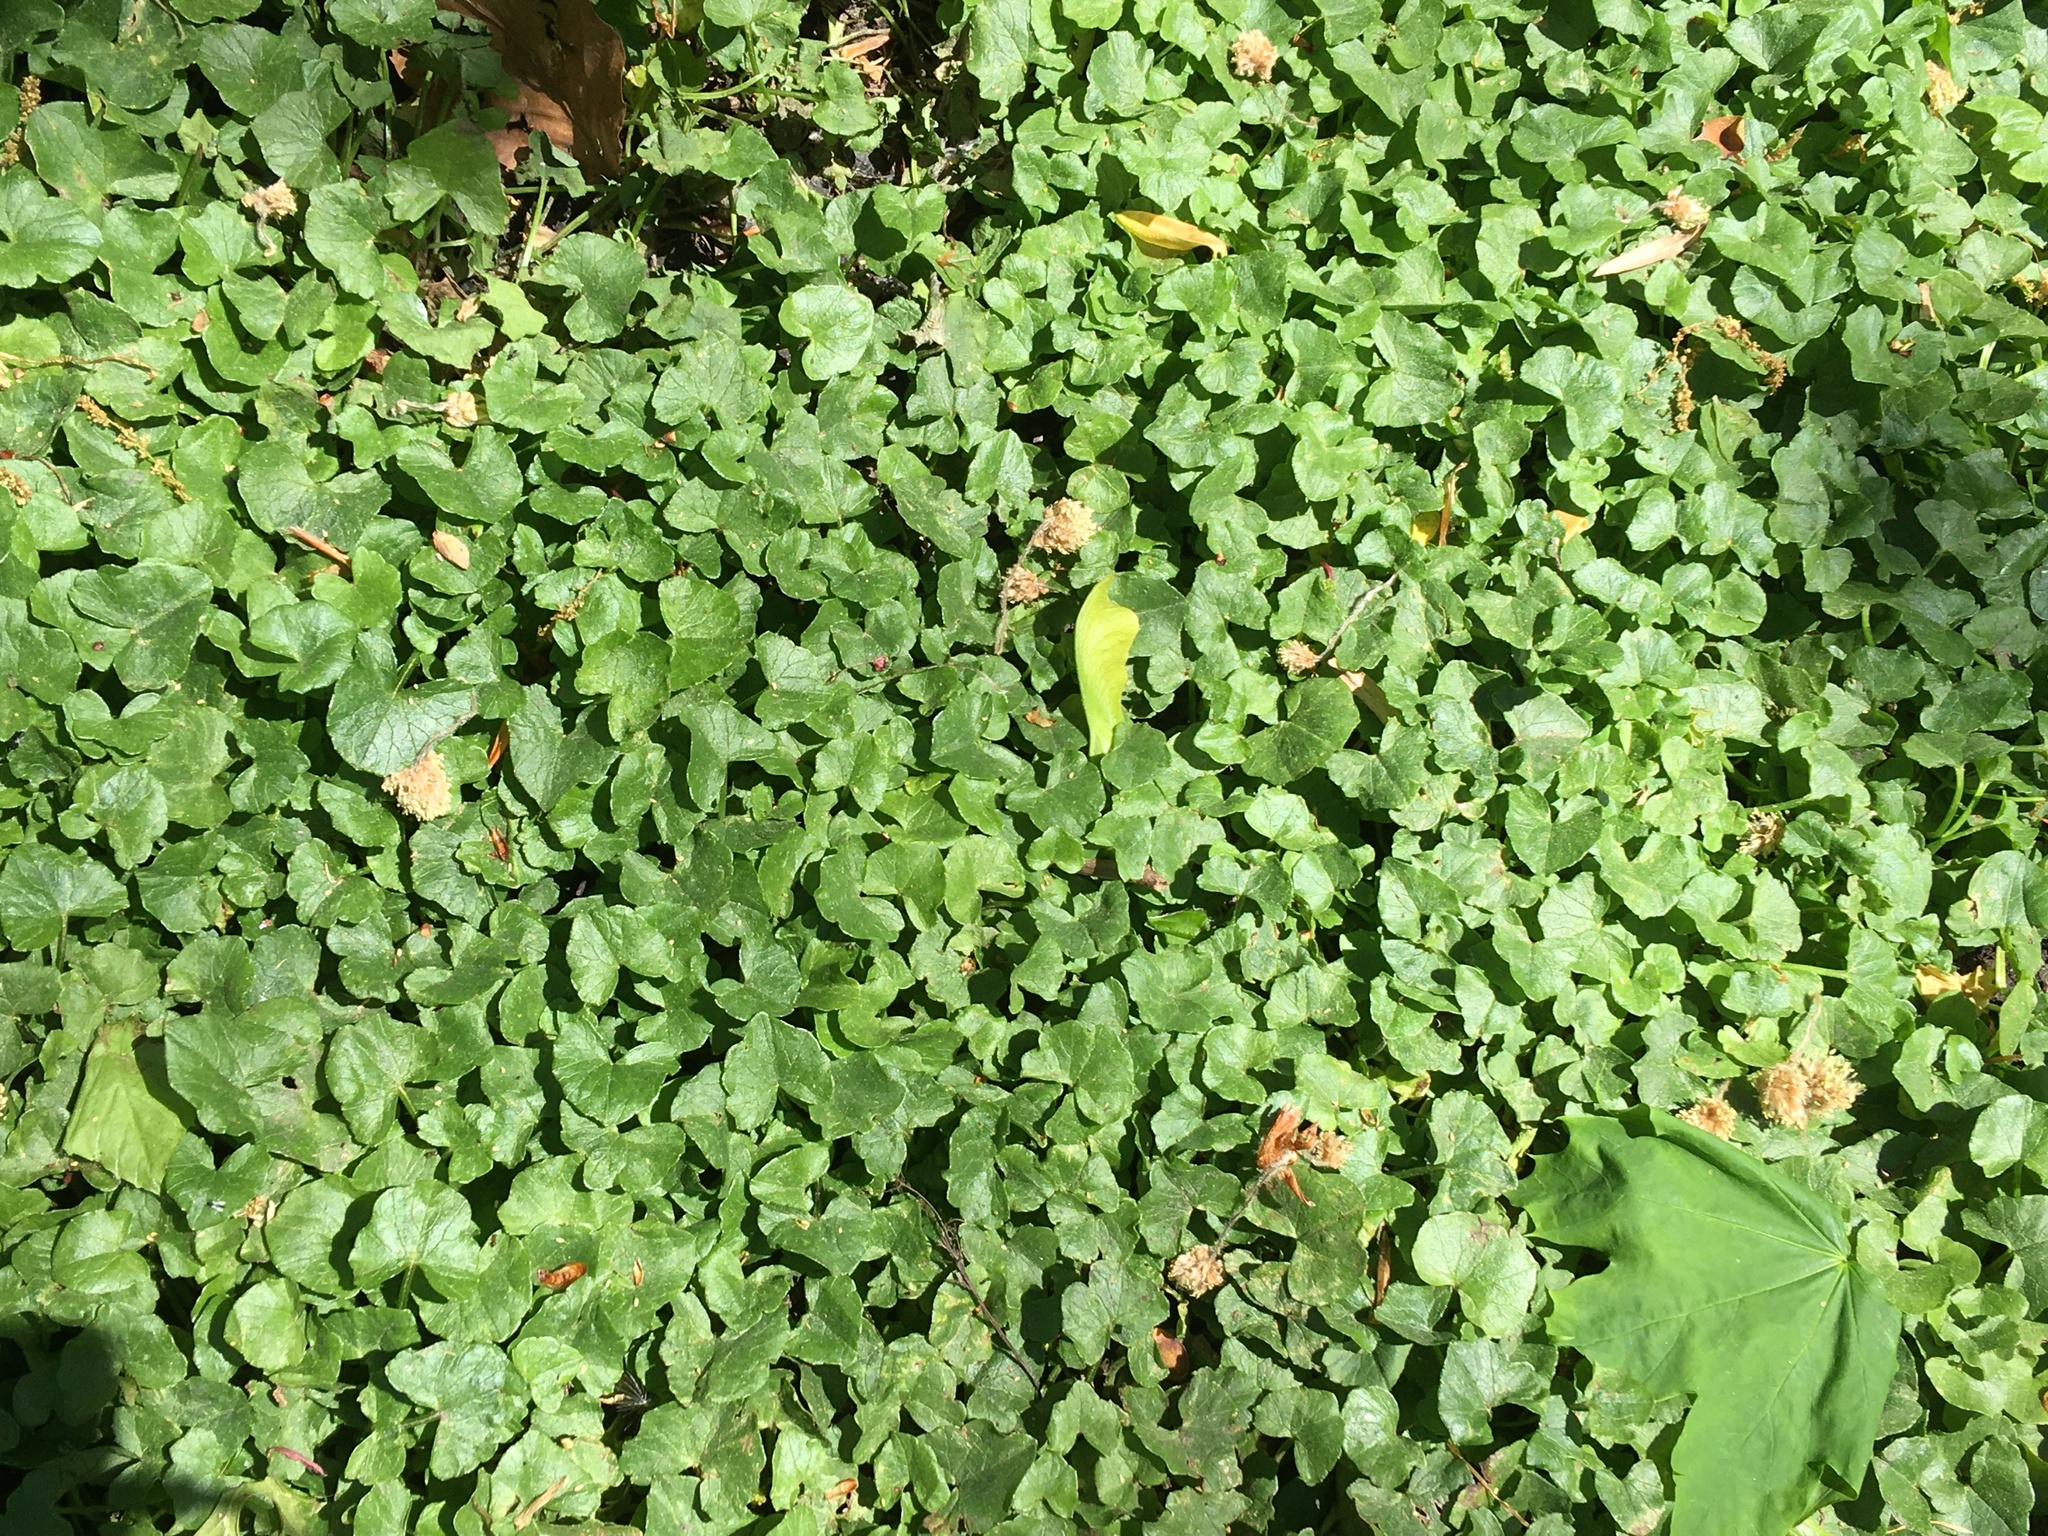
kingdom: Plantae
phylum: Tracheophyta
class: Magnoliopsida
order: Ranunculales
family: Ranunculaceae
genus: Ficaria
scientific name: Ficaria verna
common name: Lesser celandine
